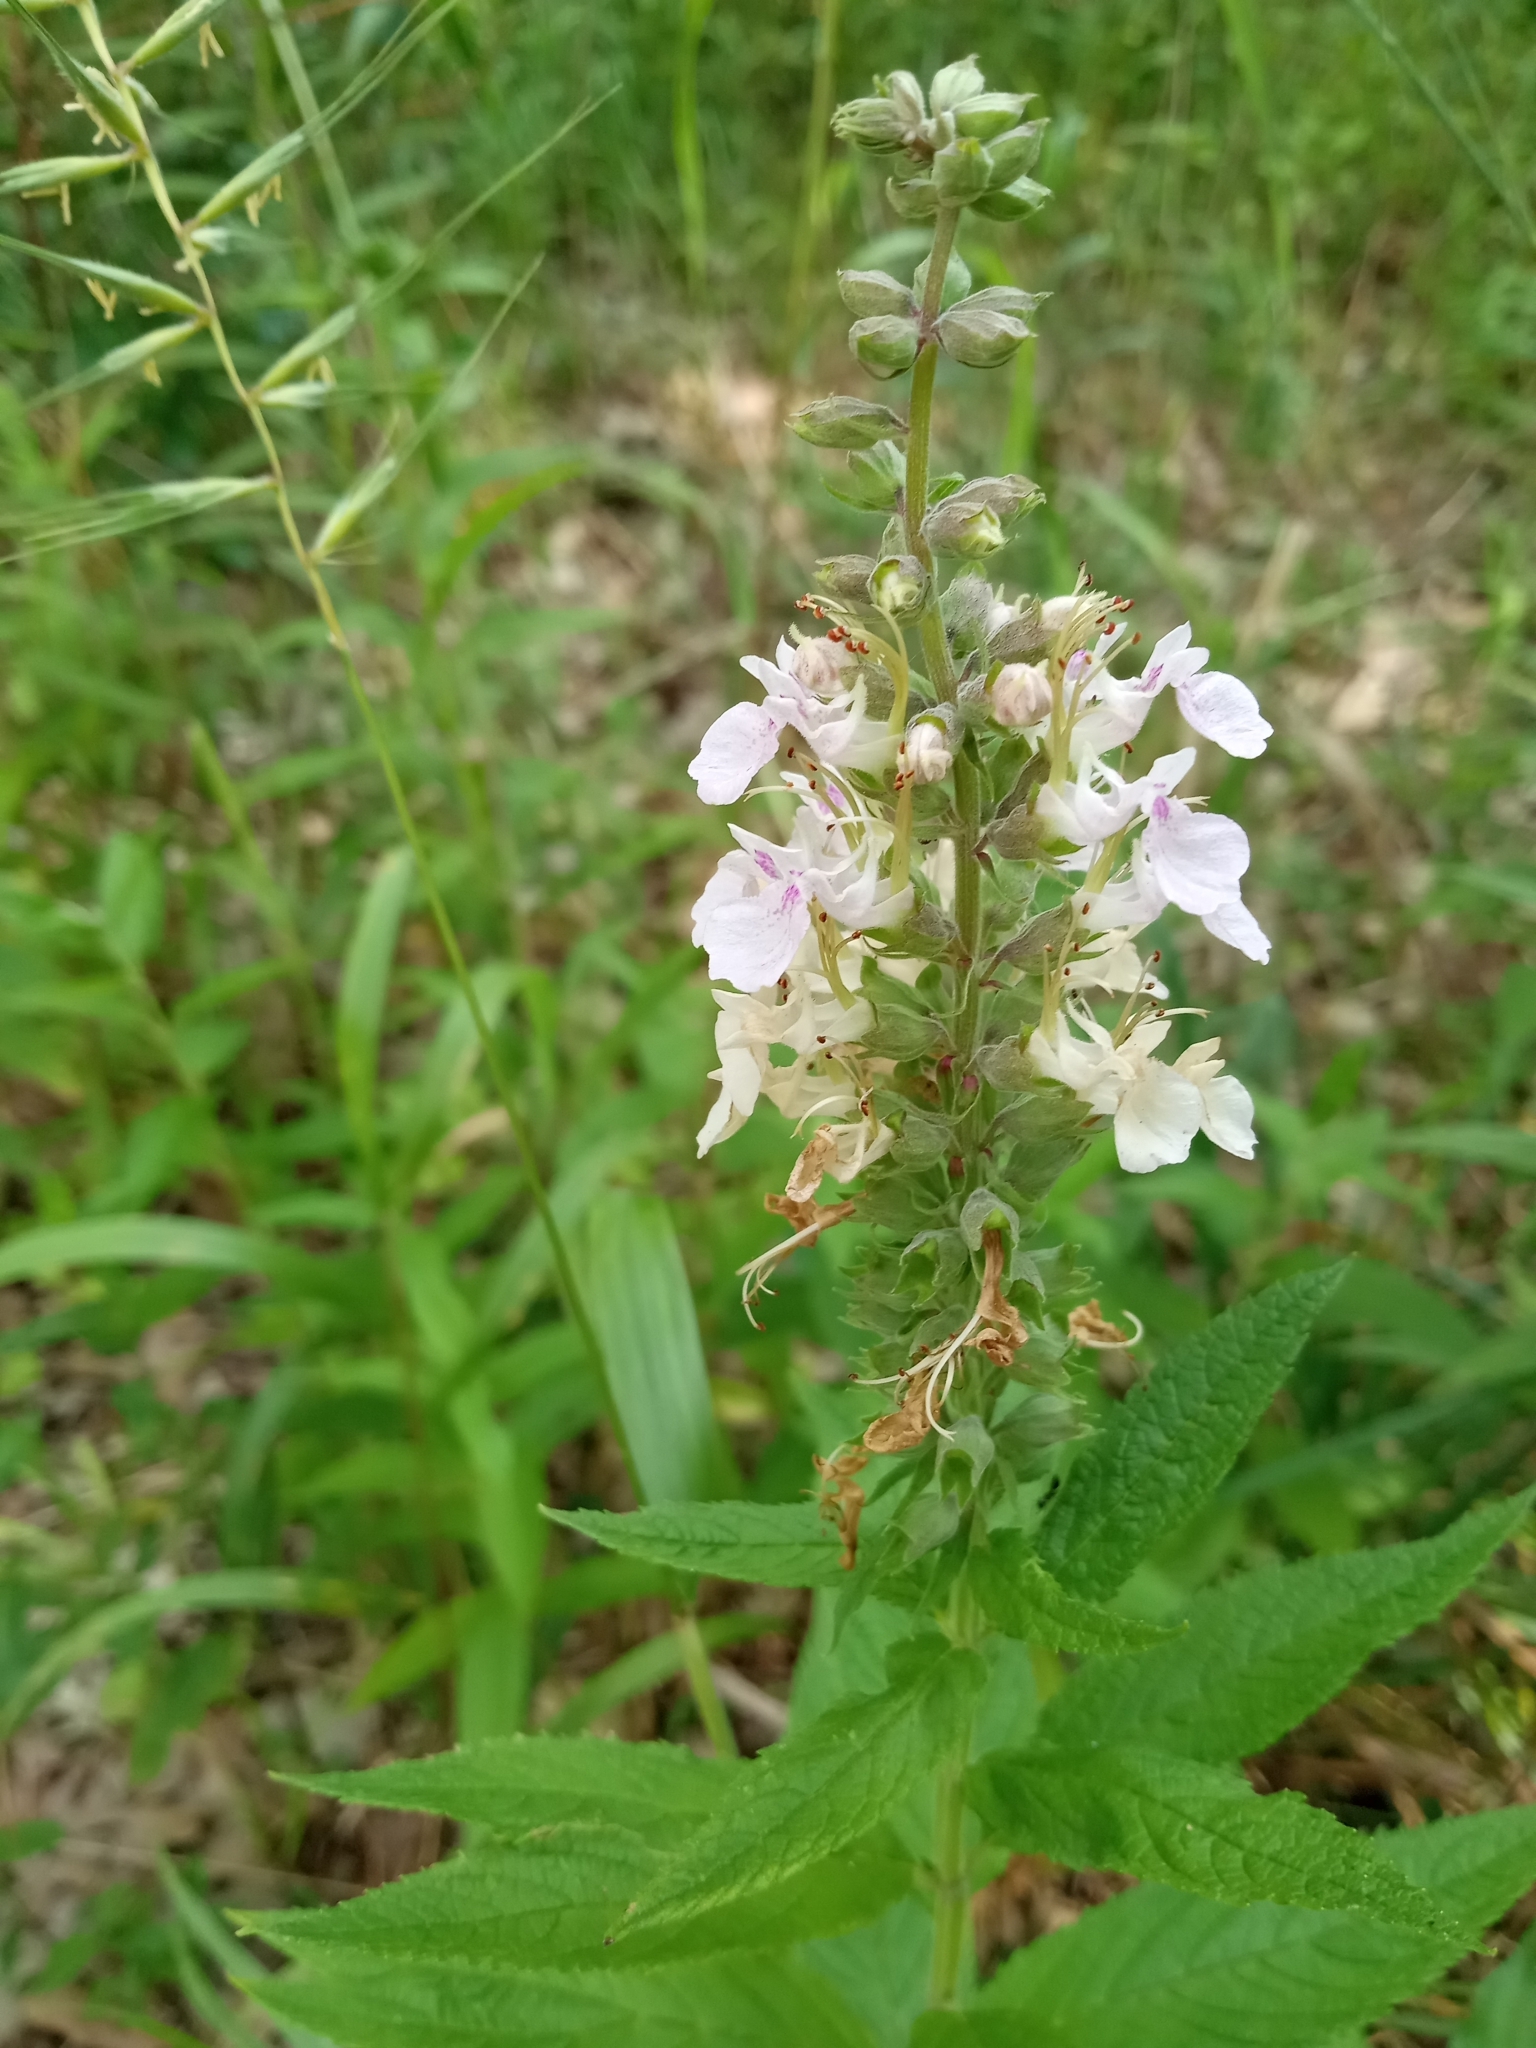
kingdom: Plantae
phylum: Tracheophyta
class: Magnoliopsida
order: Lamiales
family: Lamiaceae
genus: Teucrium
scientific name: Teucrium canadense
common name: American germander
